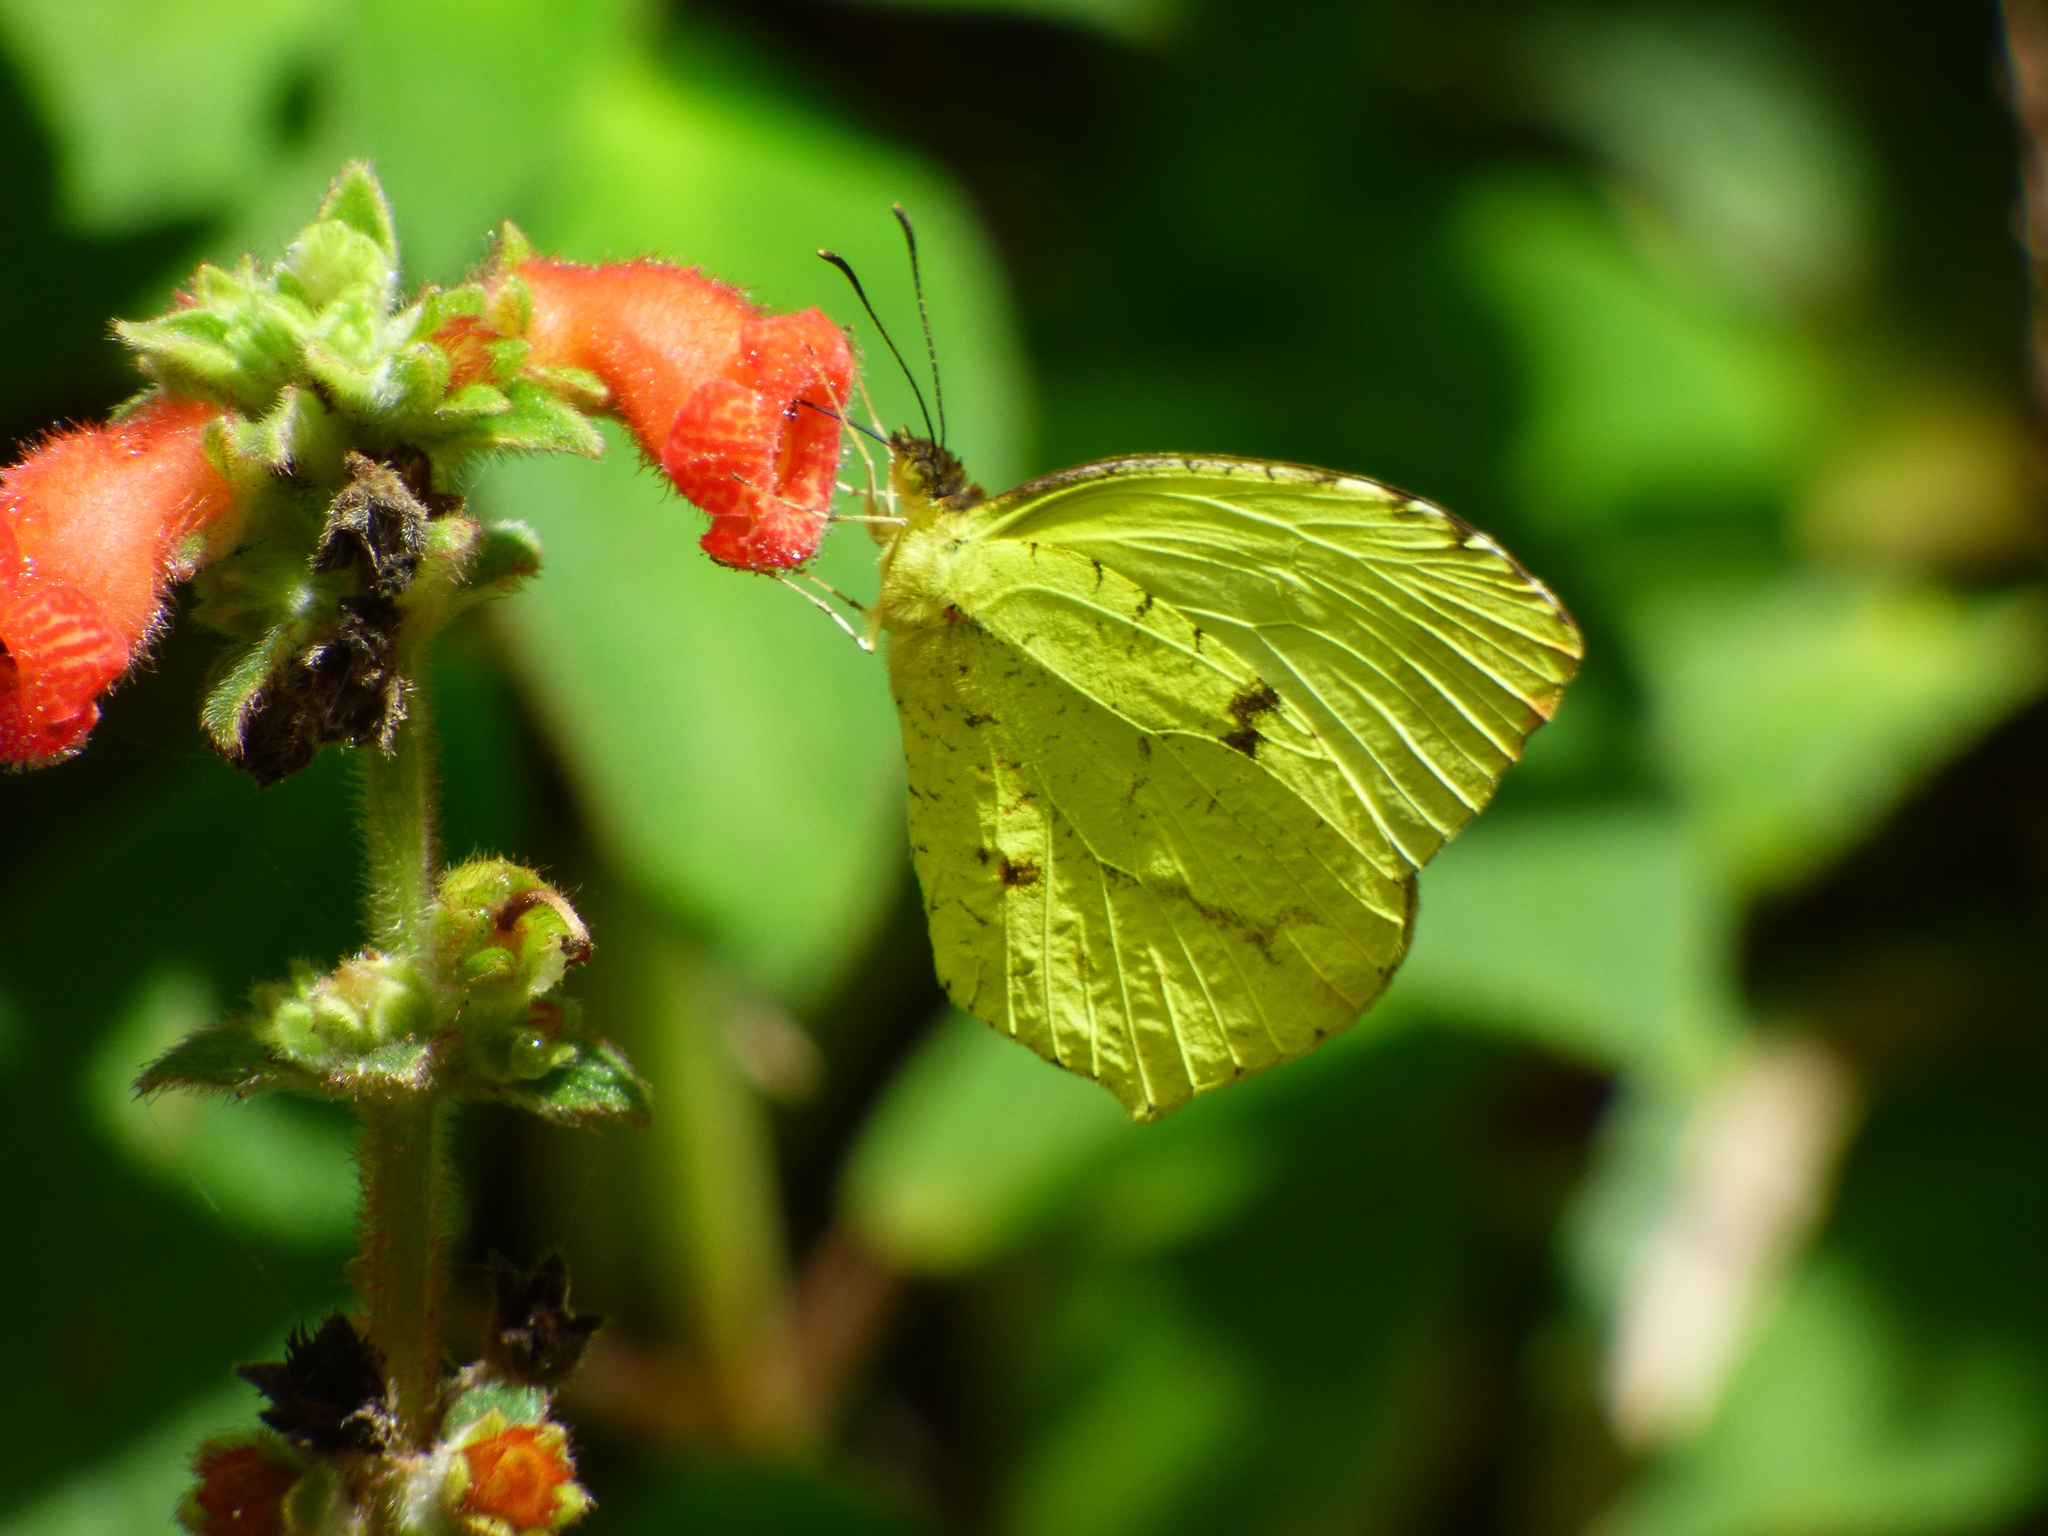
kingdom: Animalia
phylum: Arthropoda
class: Insecta
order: Lepidoptera
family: Pieridae
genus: Abaeis
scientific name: Abaeis
